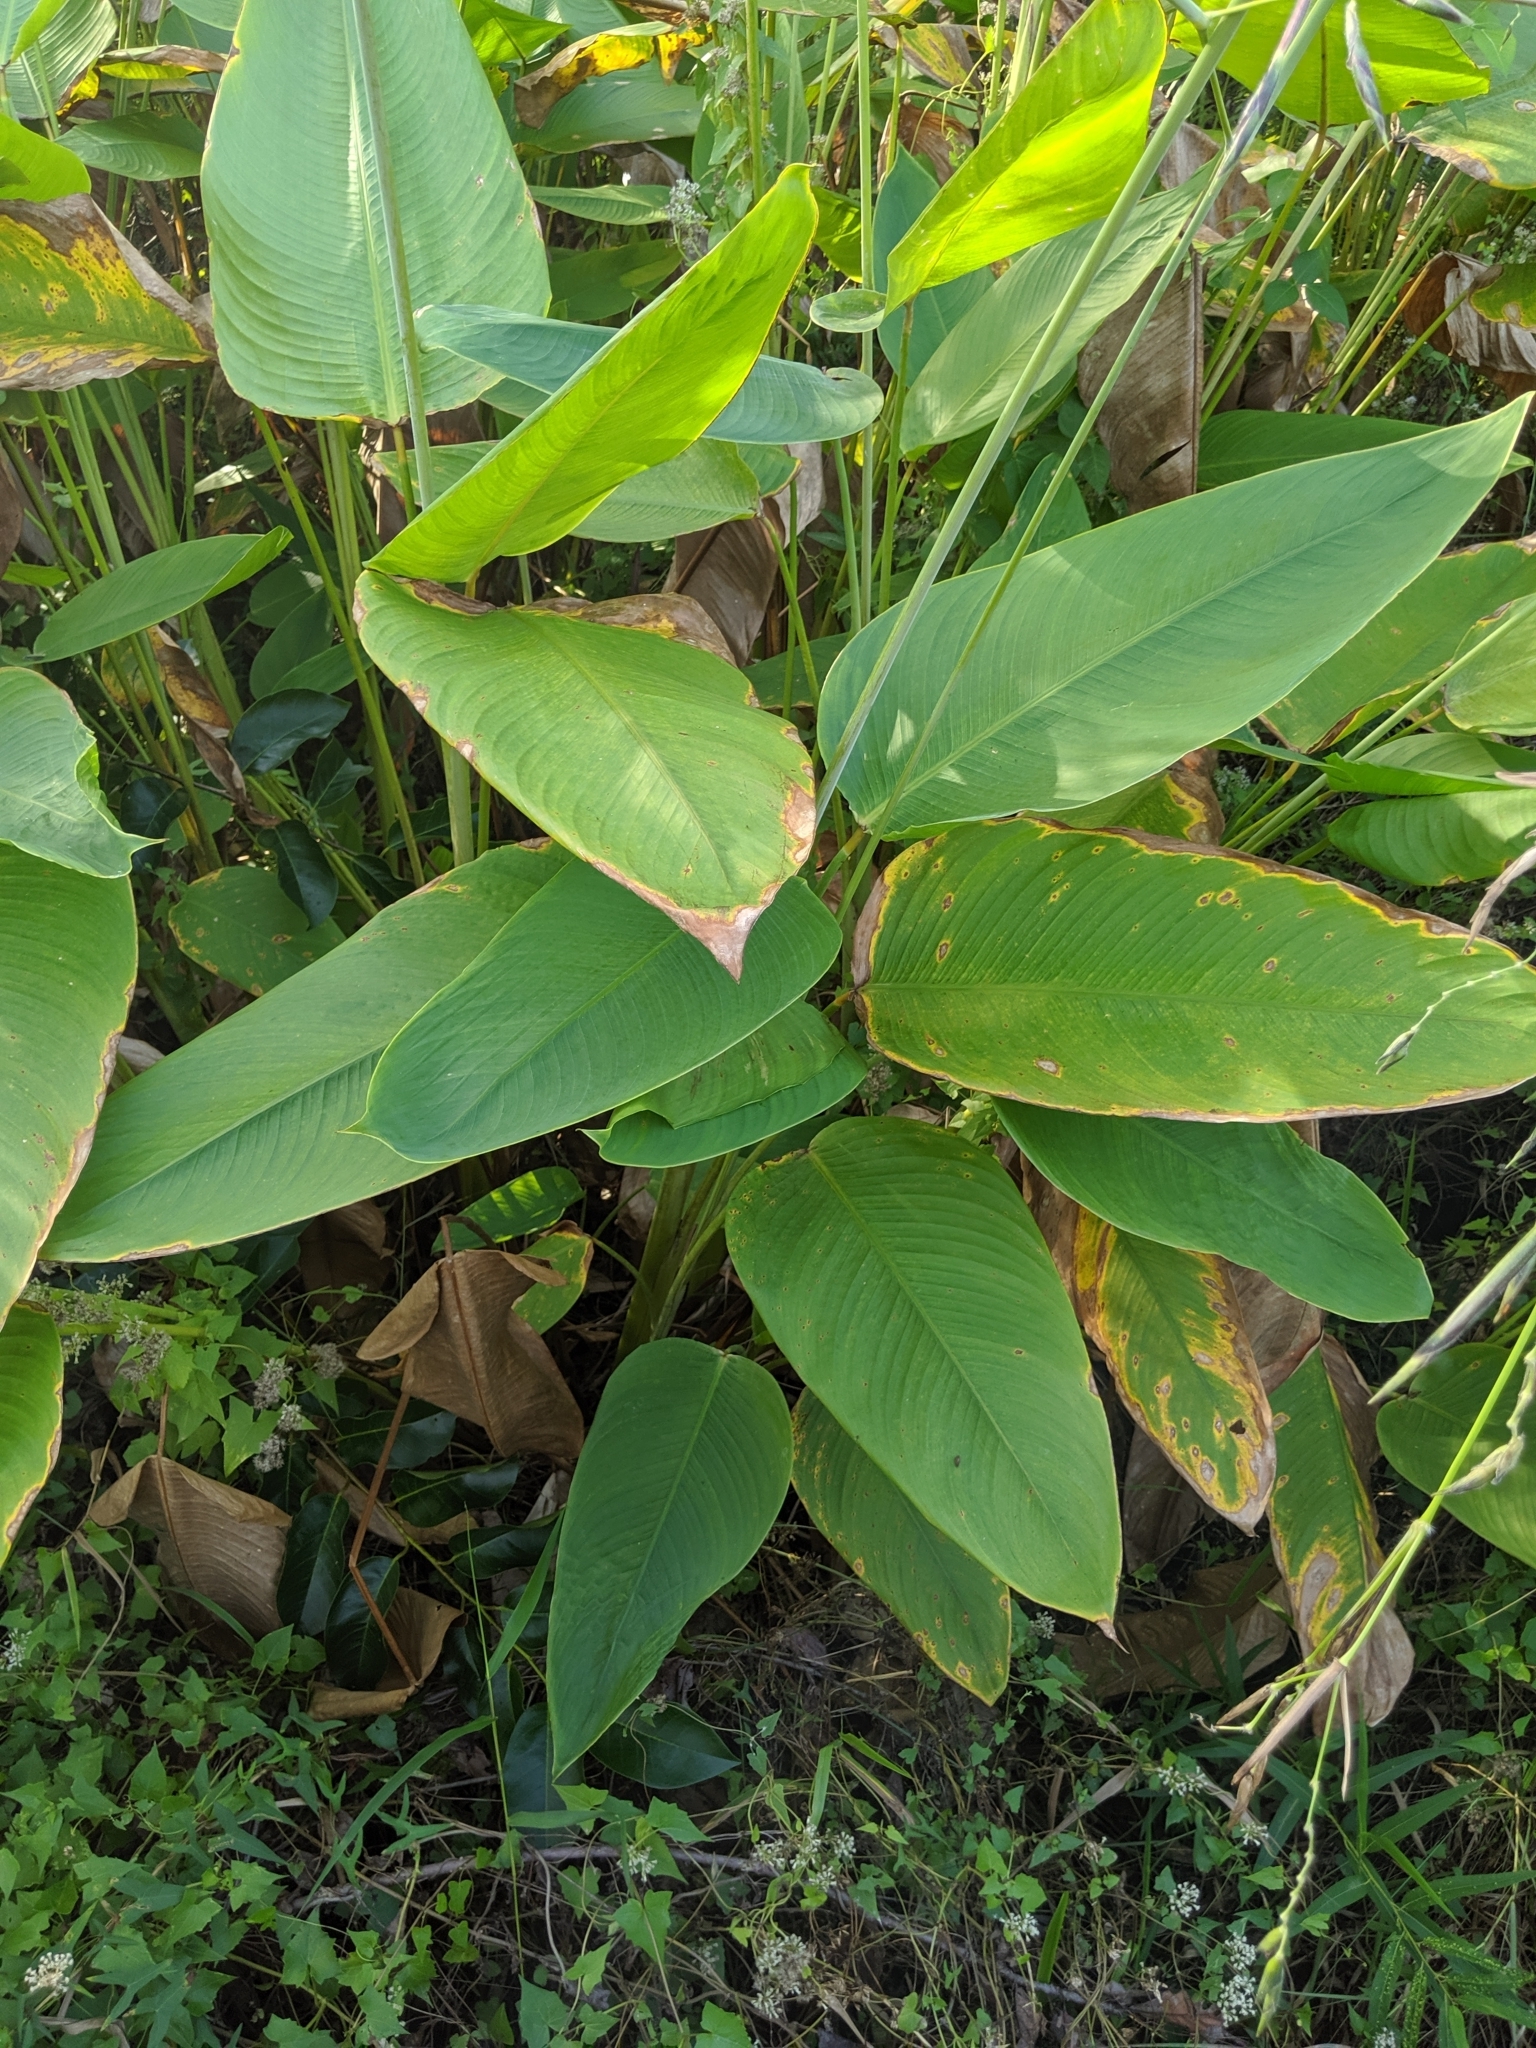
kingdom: Plantae
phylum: Tracheophyta
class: Liliopsida
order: Zingiberales
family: Marantaceae
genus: Thalia
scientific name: Thalia geniculata
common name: Arrowroot
